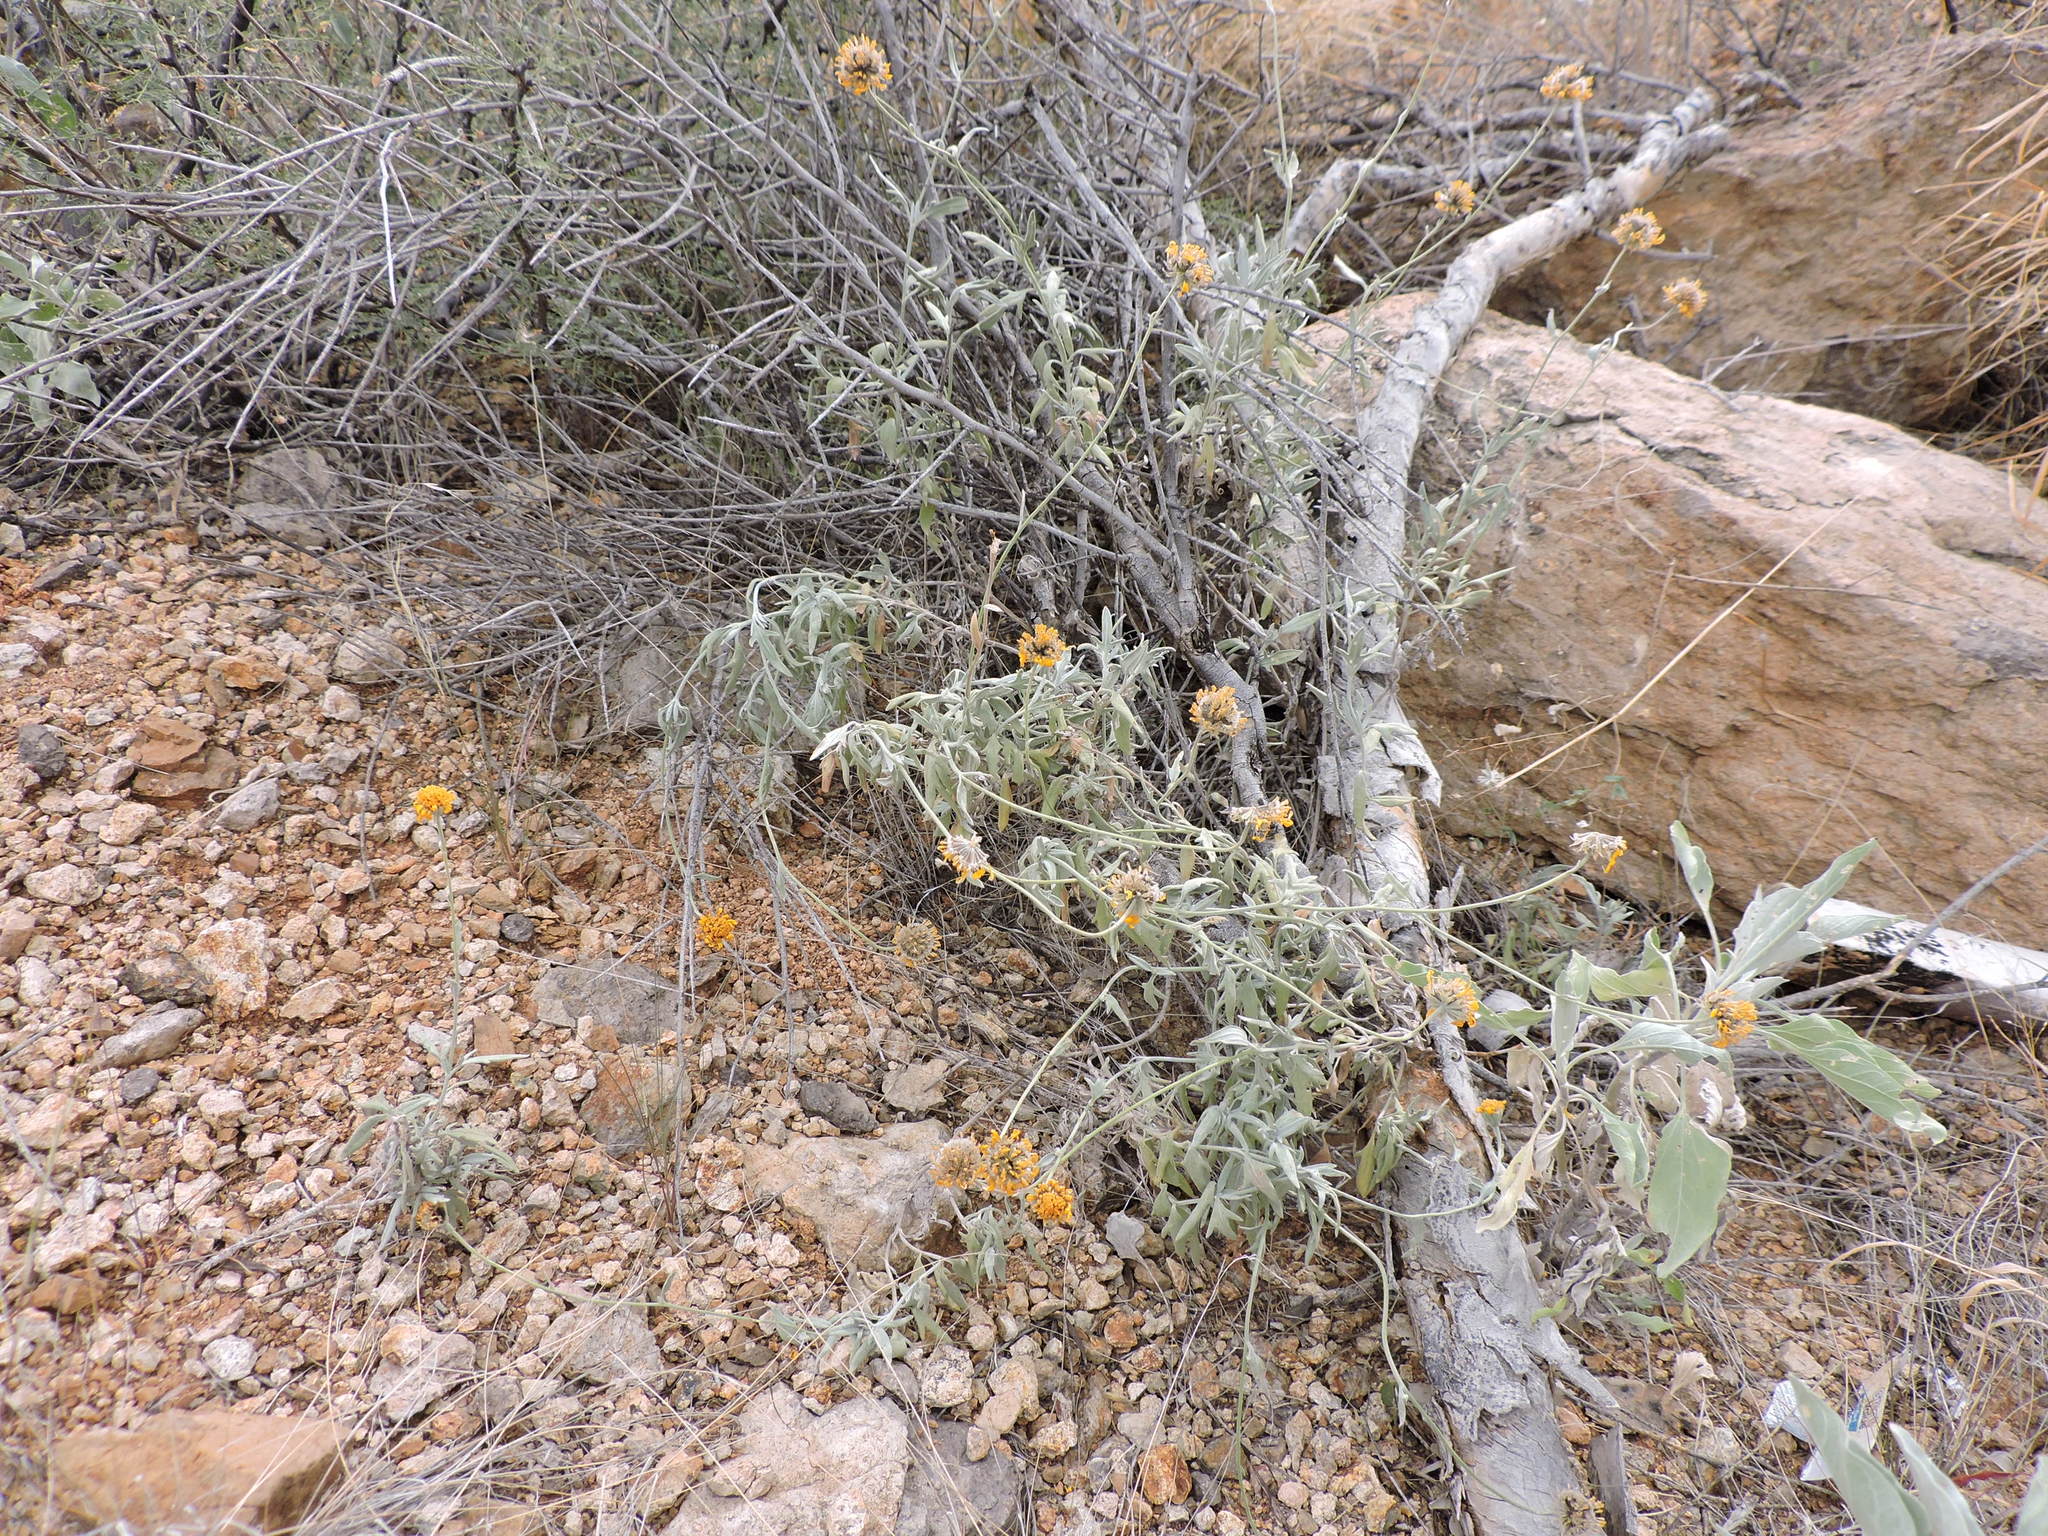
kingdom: Plantae
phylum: Tracheophyta
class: Magnoliopsida
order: Asterales
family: Asteraceae
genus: Picradeniopsis
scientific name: Picradeniopsis absinthifolia
